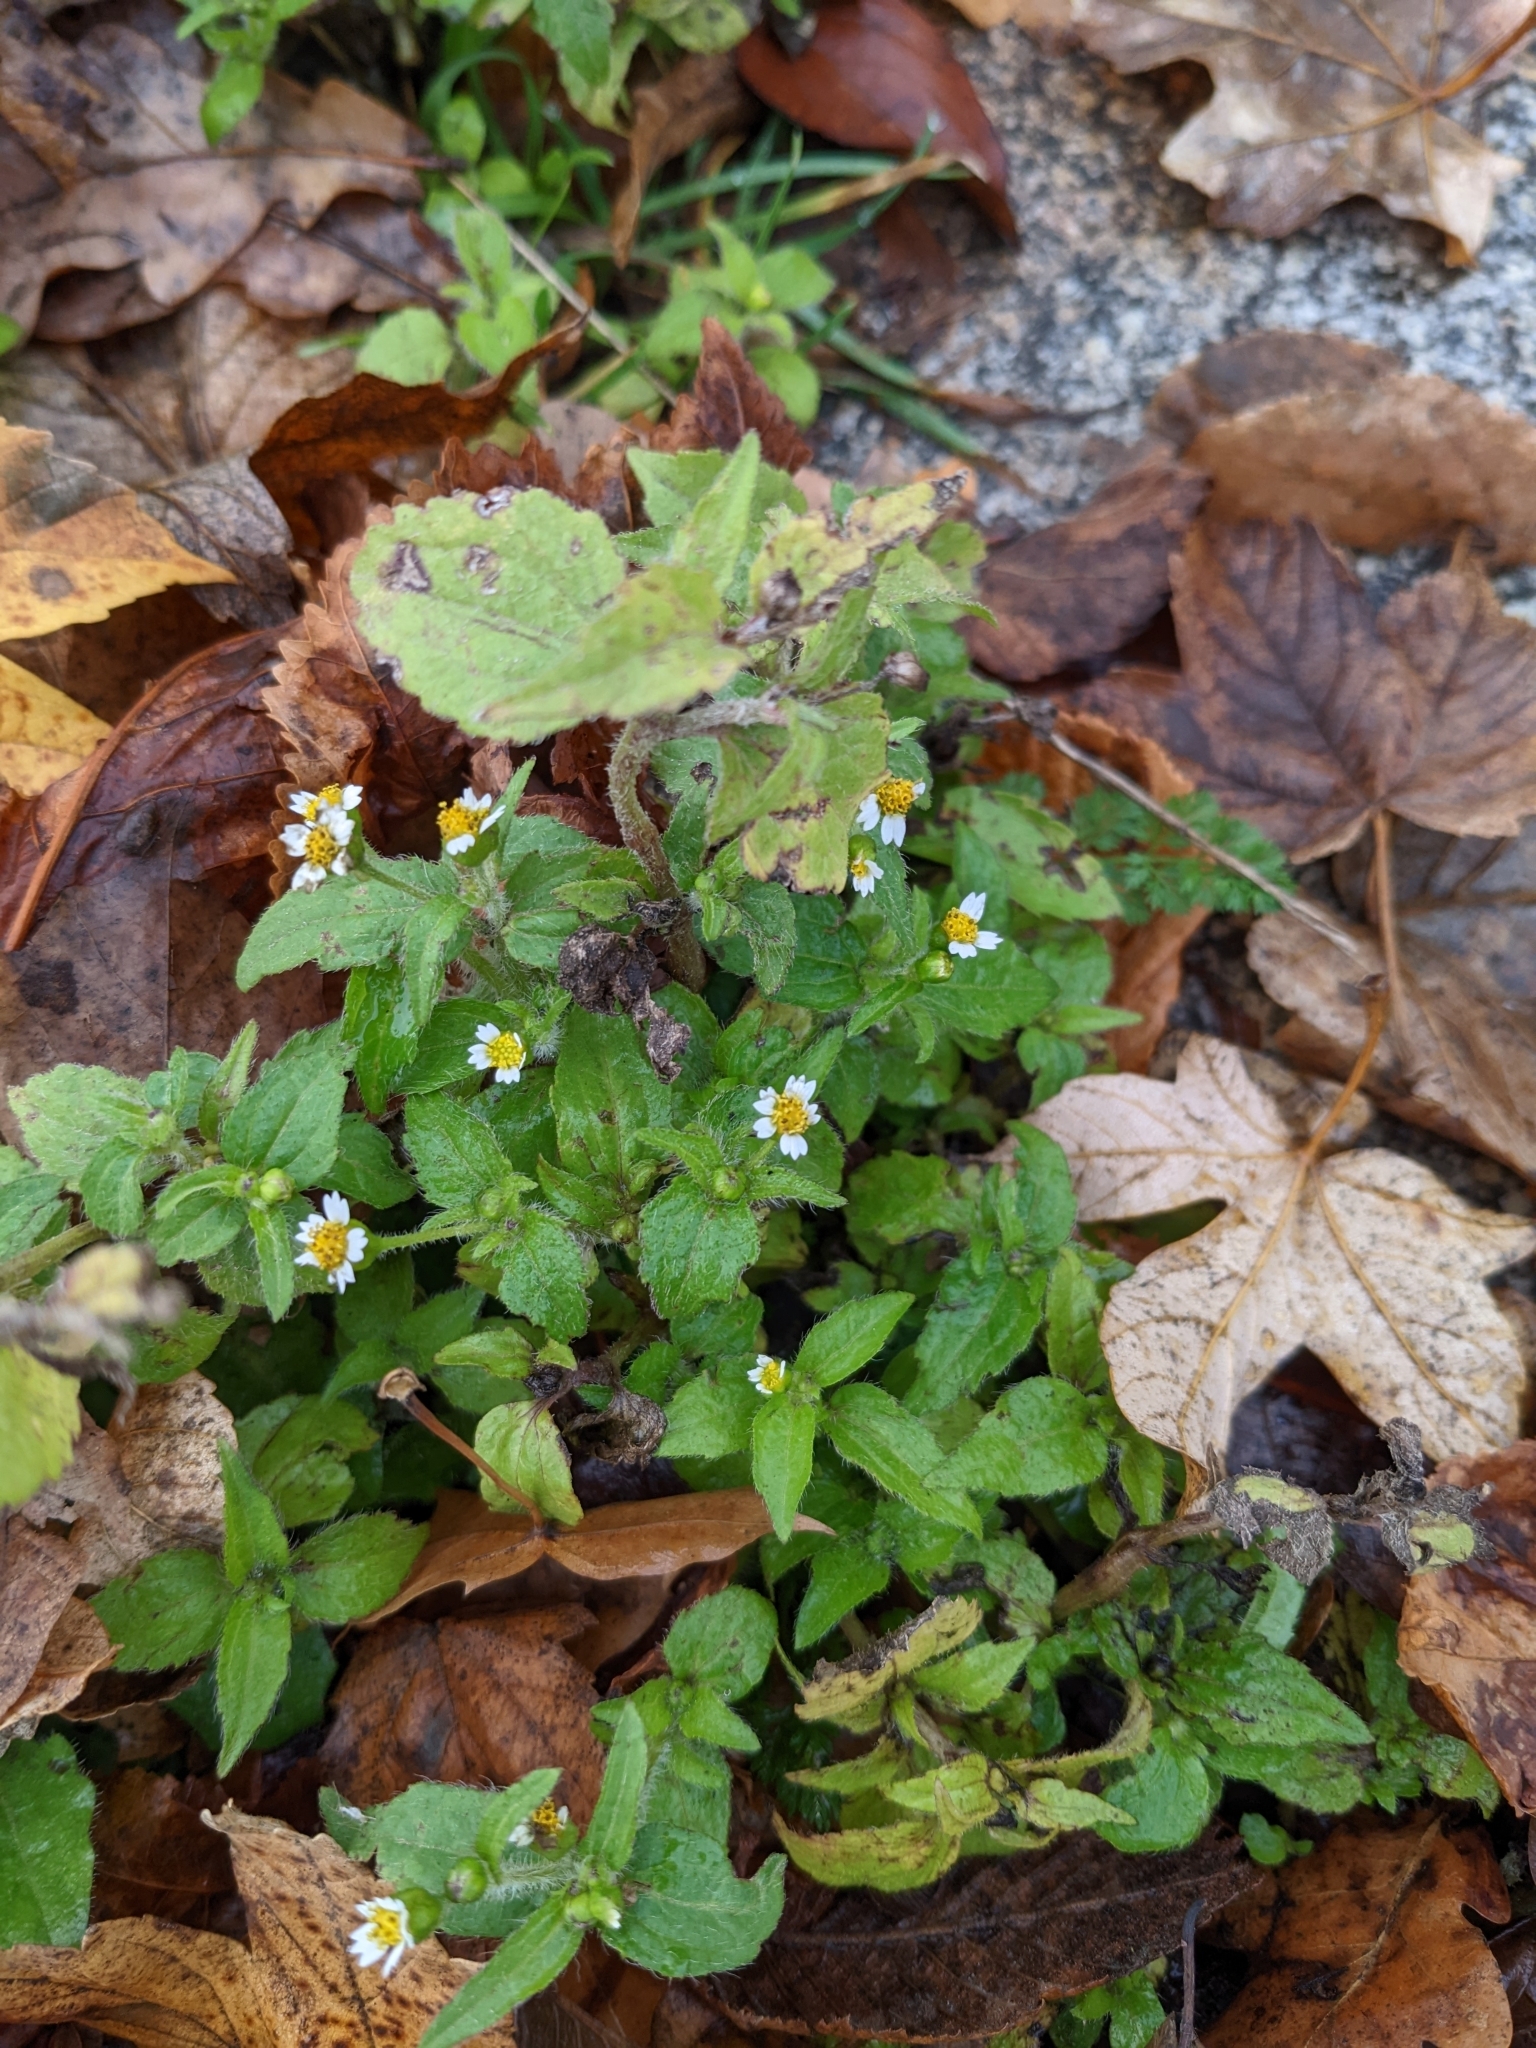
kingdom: Plantae
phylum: Tracheophyta
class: Magnoliopsida
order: Asterales
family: Asteraceae
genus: Galinsoga
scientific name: Galinsoga quadriradiata
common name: Shaggy soldier
